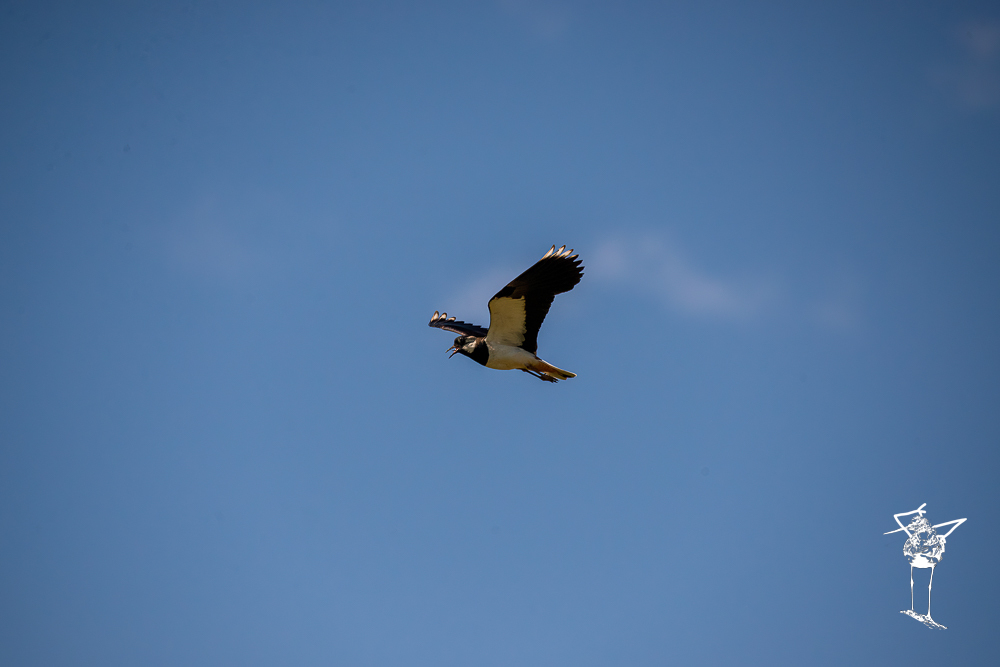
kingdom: Animalia
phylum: Chordata
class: Aves
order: Charadriiformes
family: Charadriidae
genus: Vanellus
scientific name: Vanellus vanellus
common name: Northern lapwing
